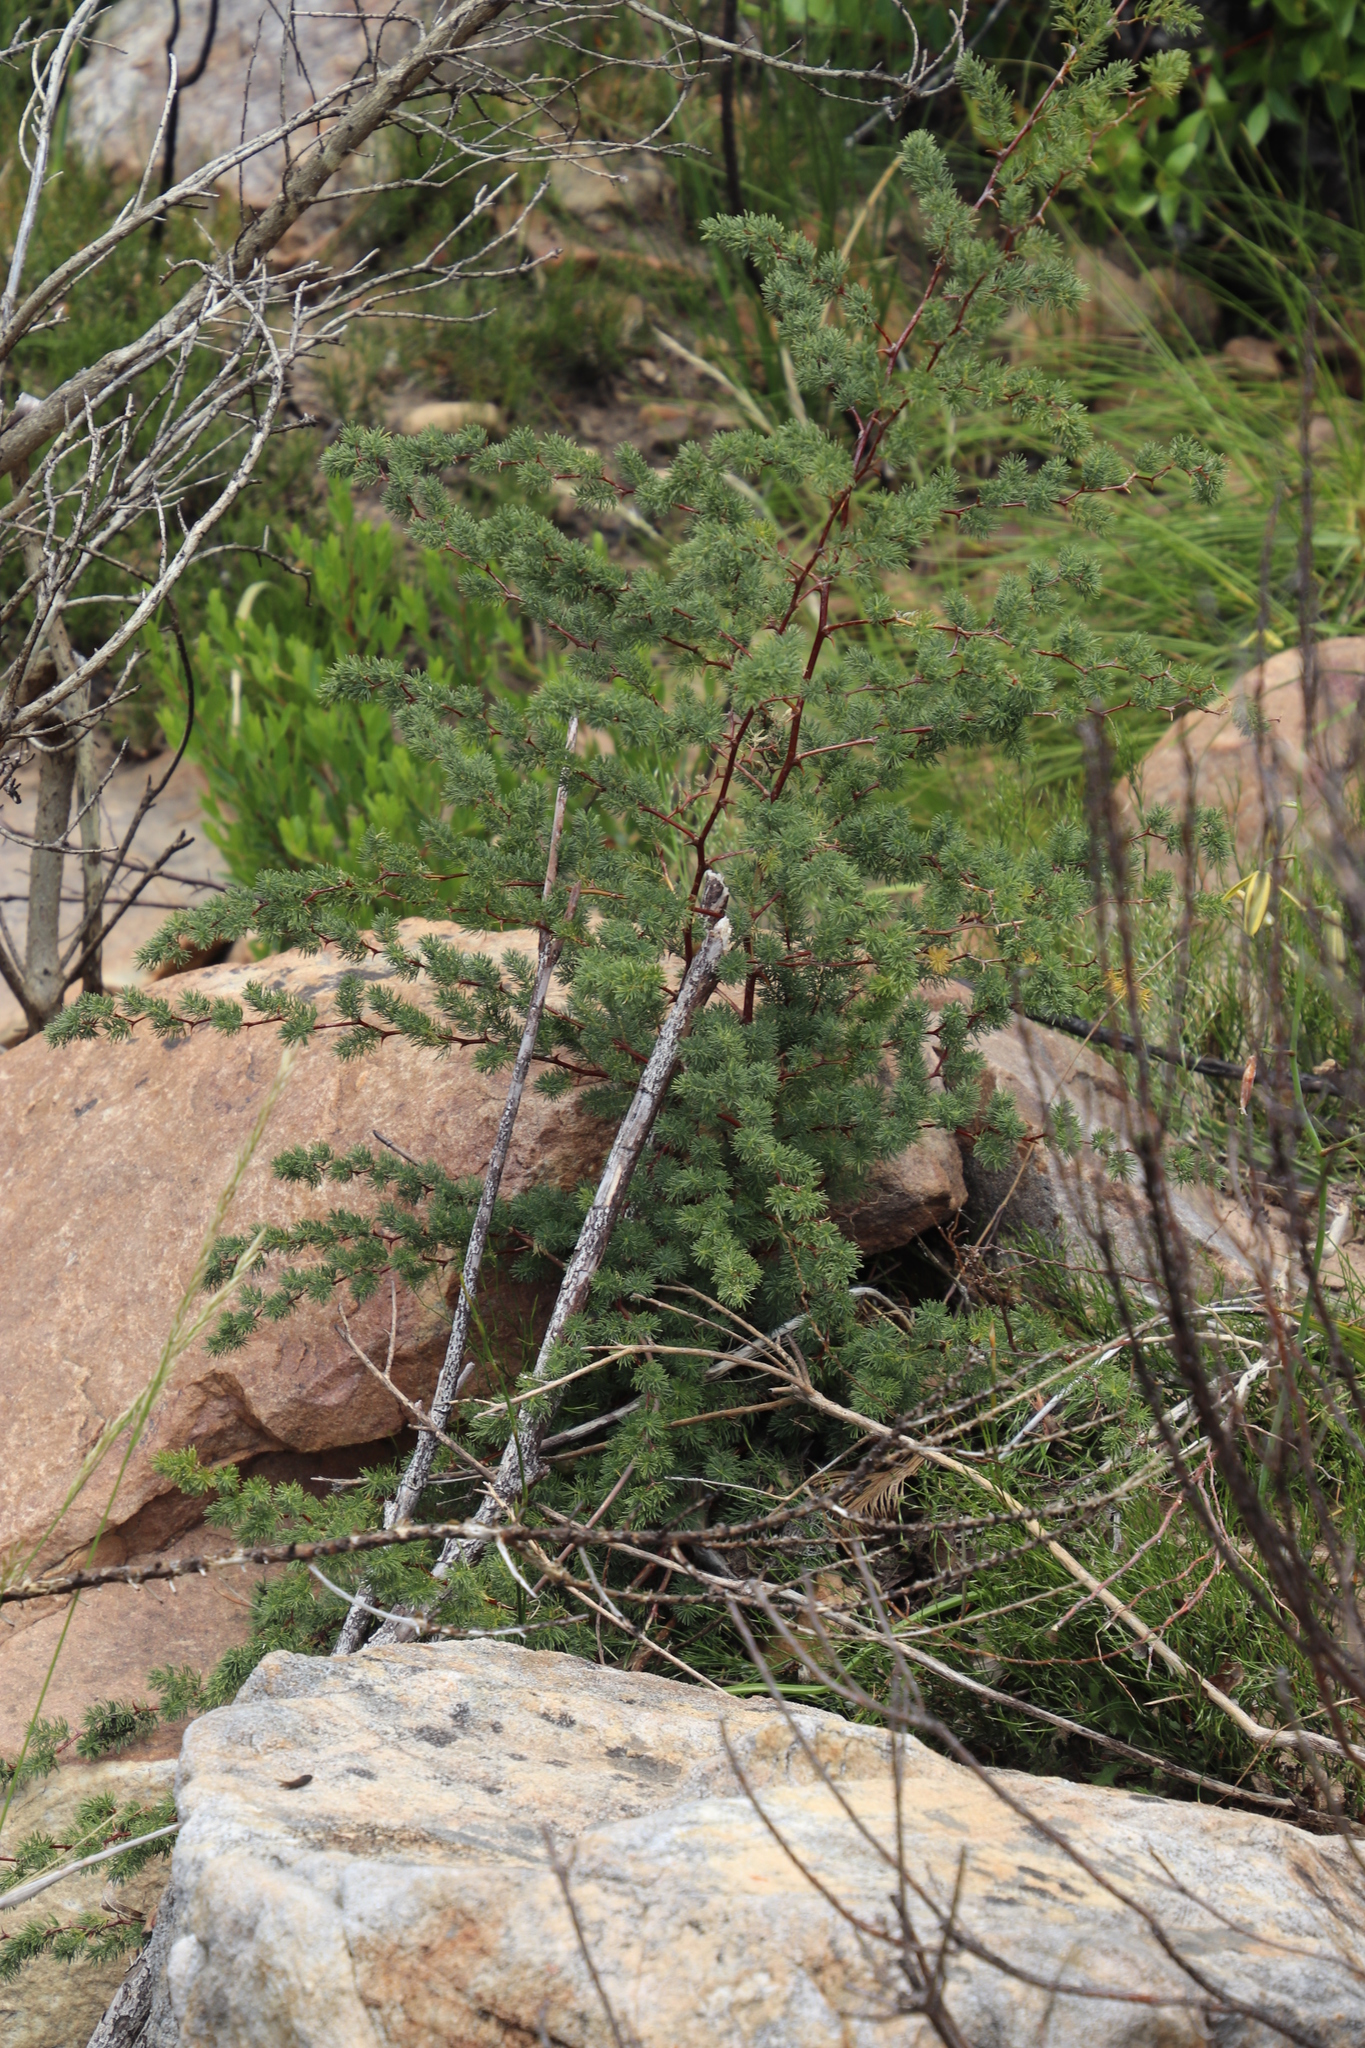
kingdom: Plantae
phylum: Tracheophyta
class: Liliopsida
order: Asparagales
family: Asparagaceae
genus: Asparagus
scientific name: Asparagus rubicundus
